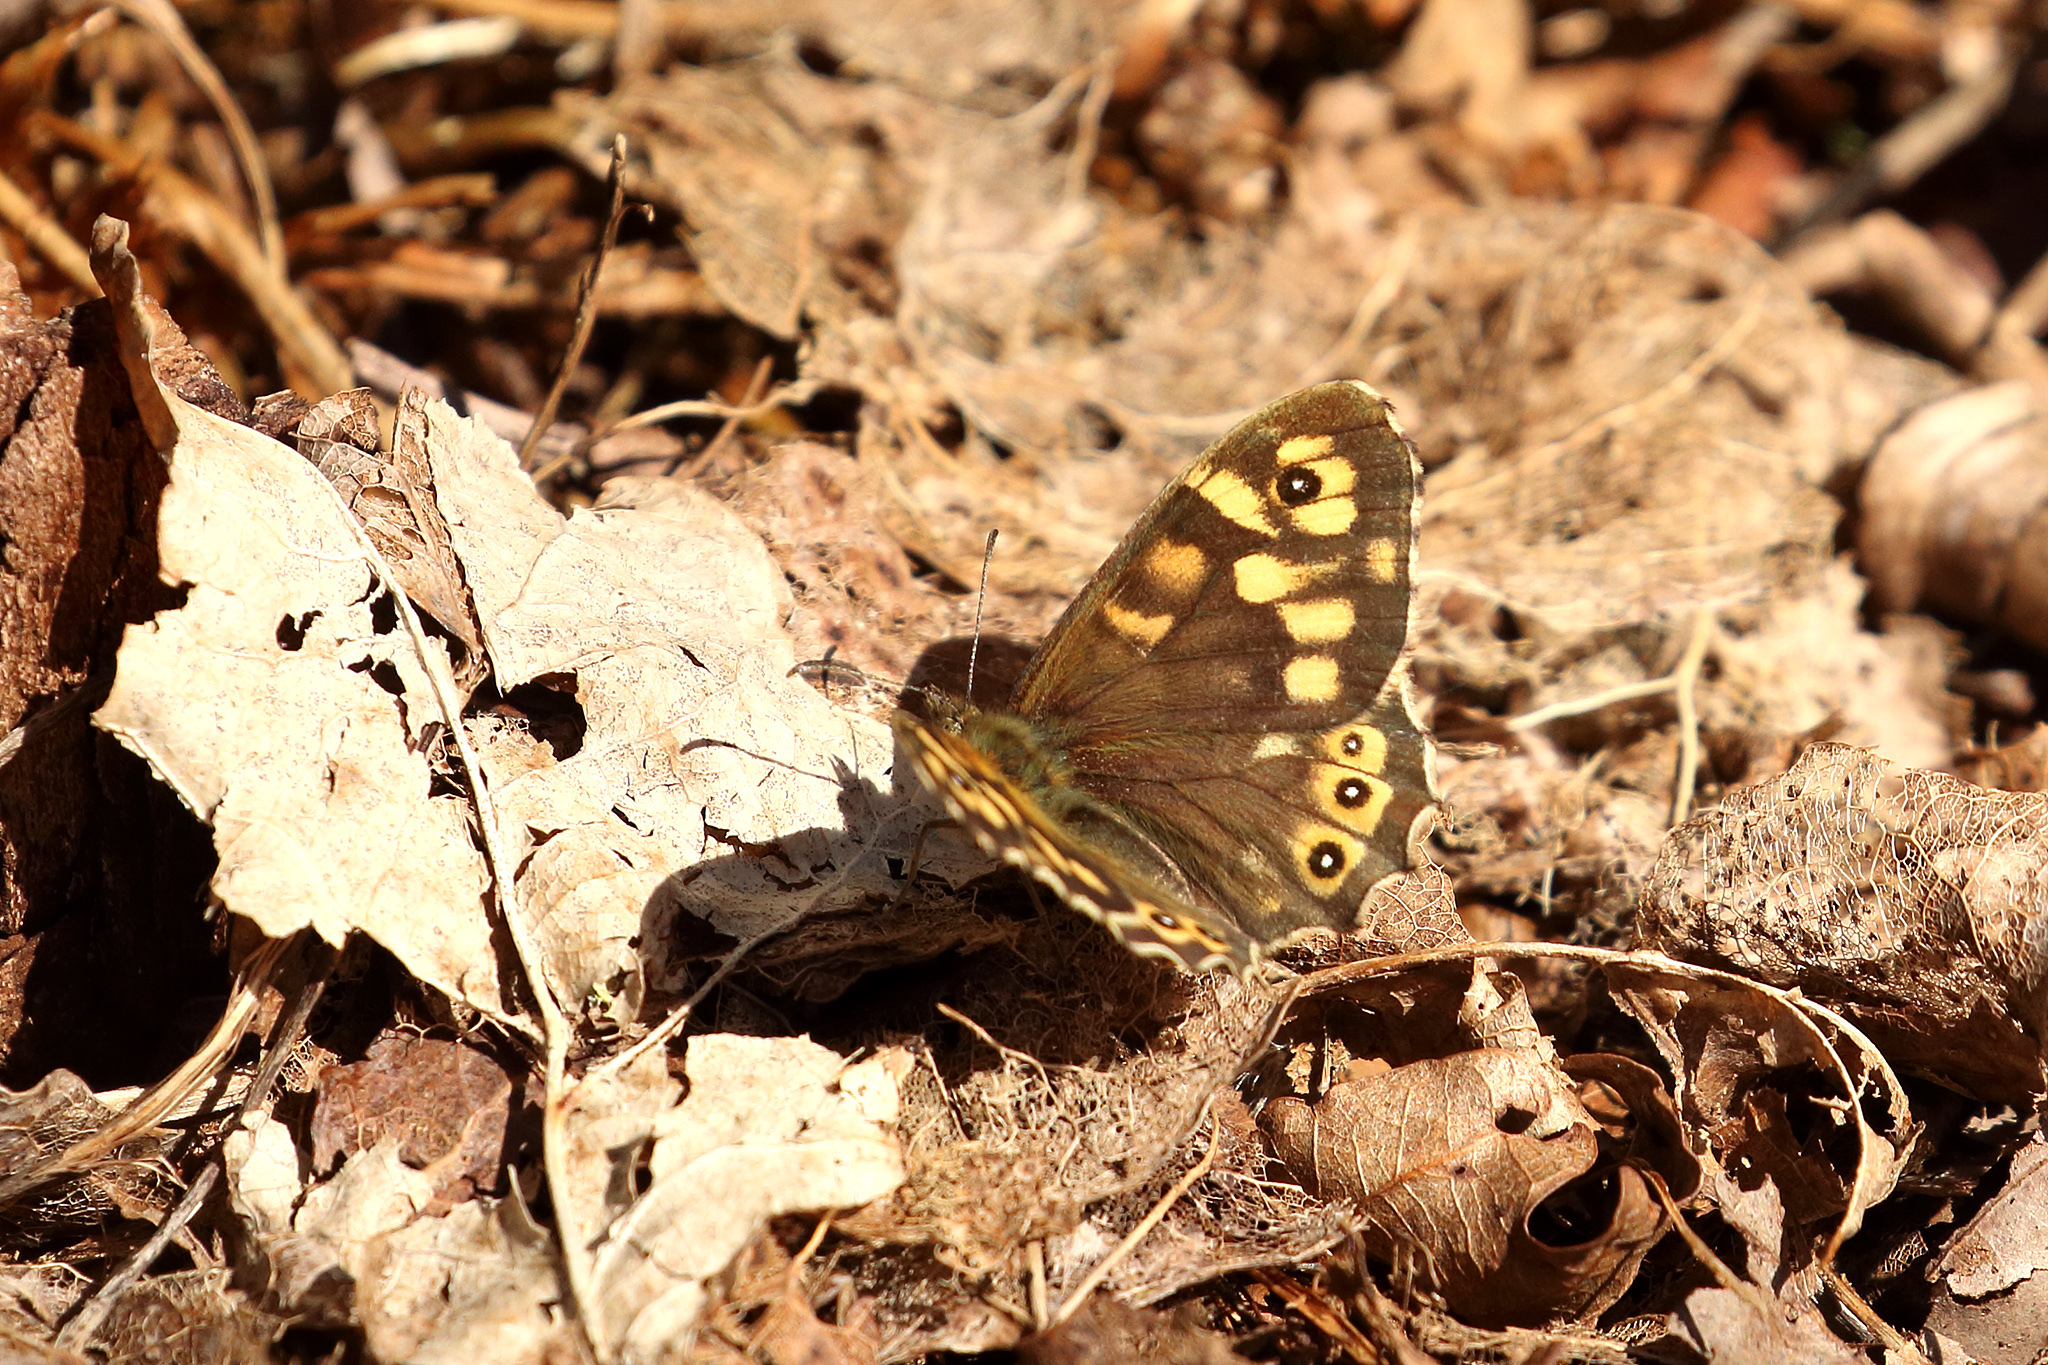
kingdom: Animalia
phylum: Arthropoda
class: Insecta
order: Lepidoptera
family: Nymphalidae
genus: Pararge
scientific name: Pararge aegeria
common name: Speckled wood
